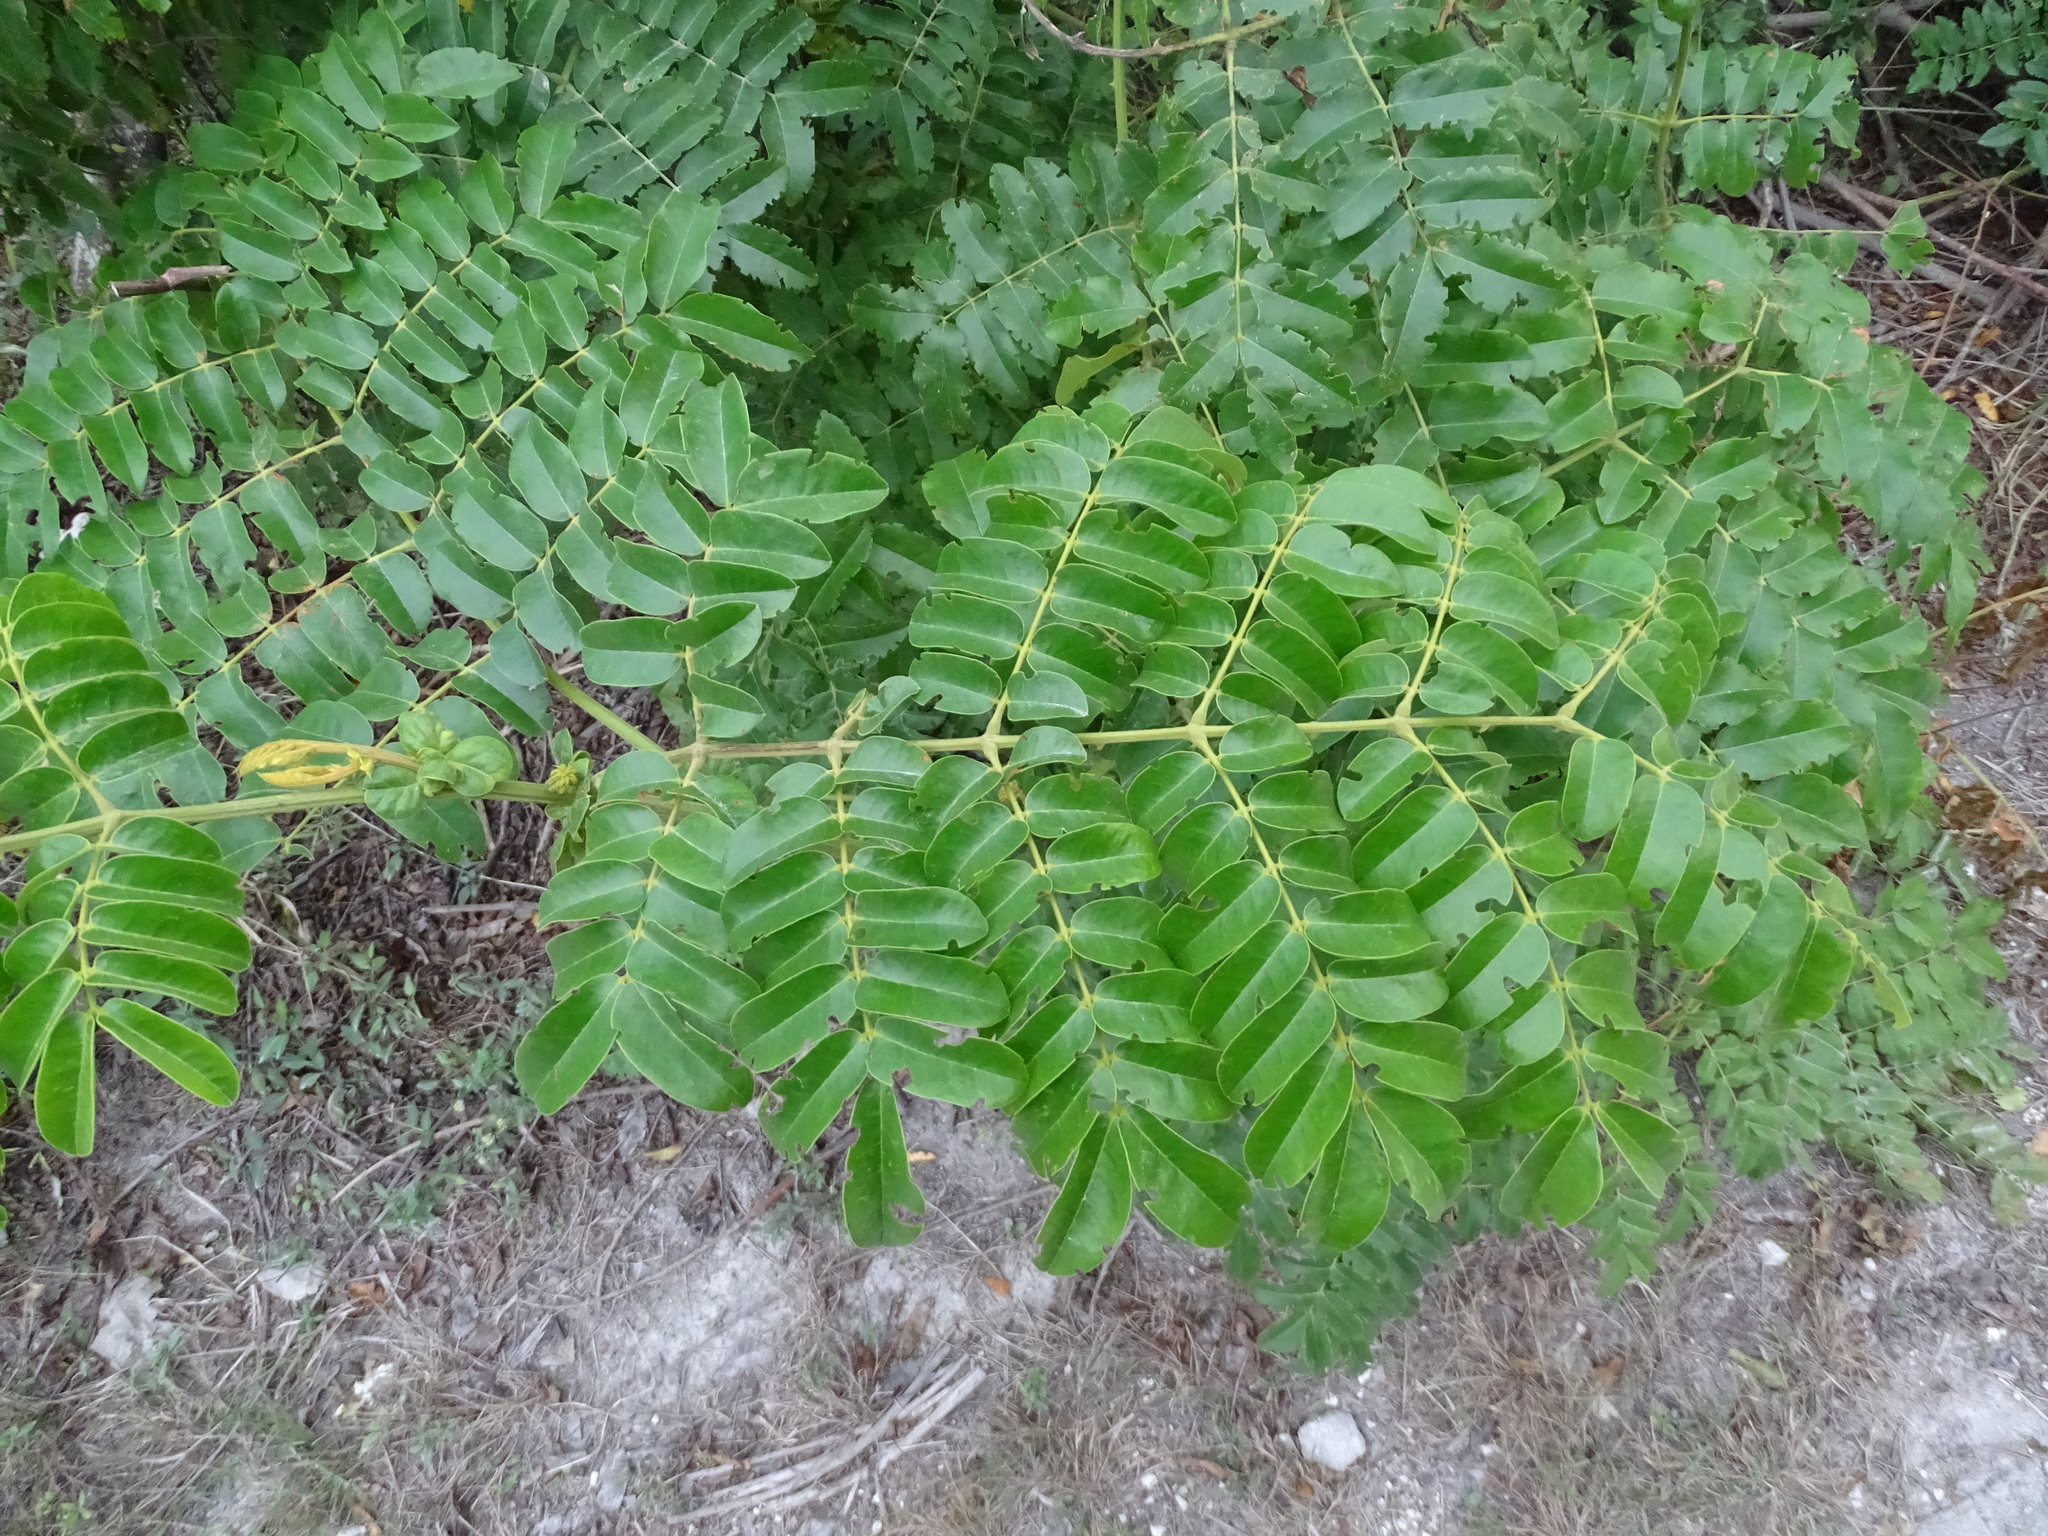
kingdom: Plantae
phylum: Tracheophyta
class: Magnoliopsida
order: Fabales
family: Fabaceae
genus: Guilandina
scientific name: Guilandina bonduc
